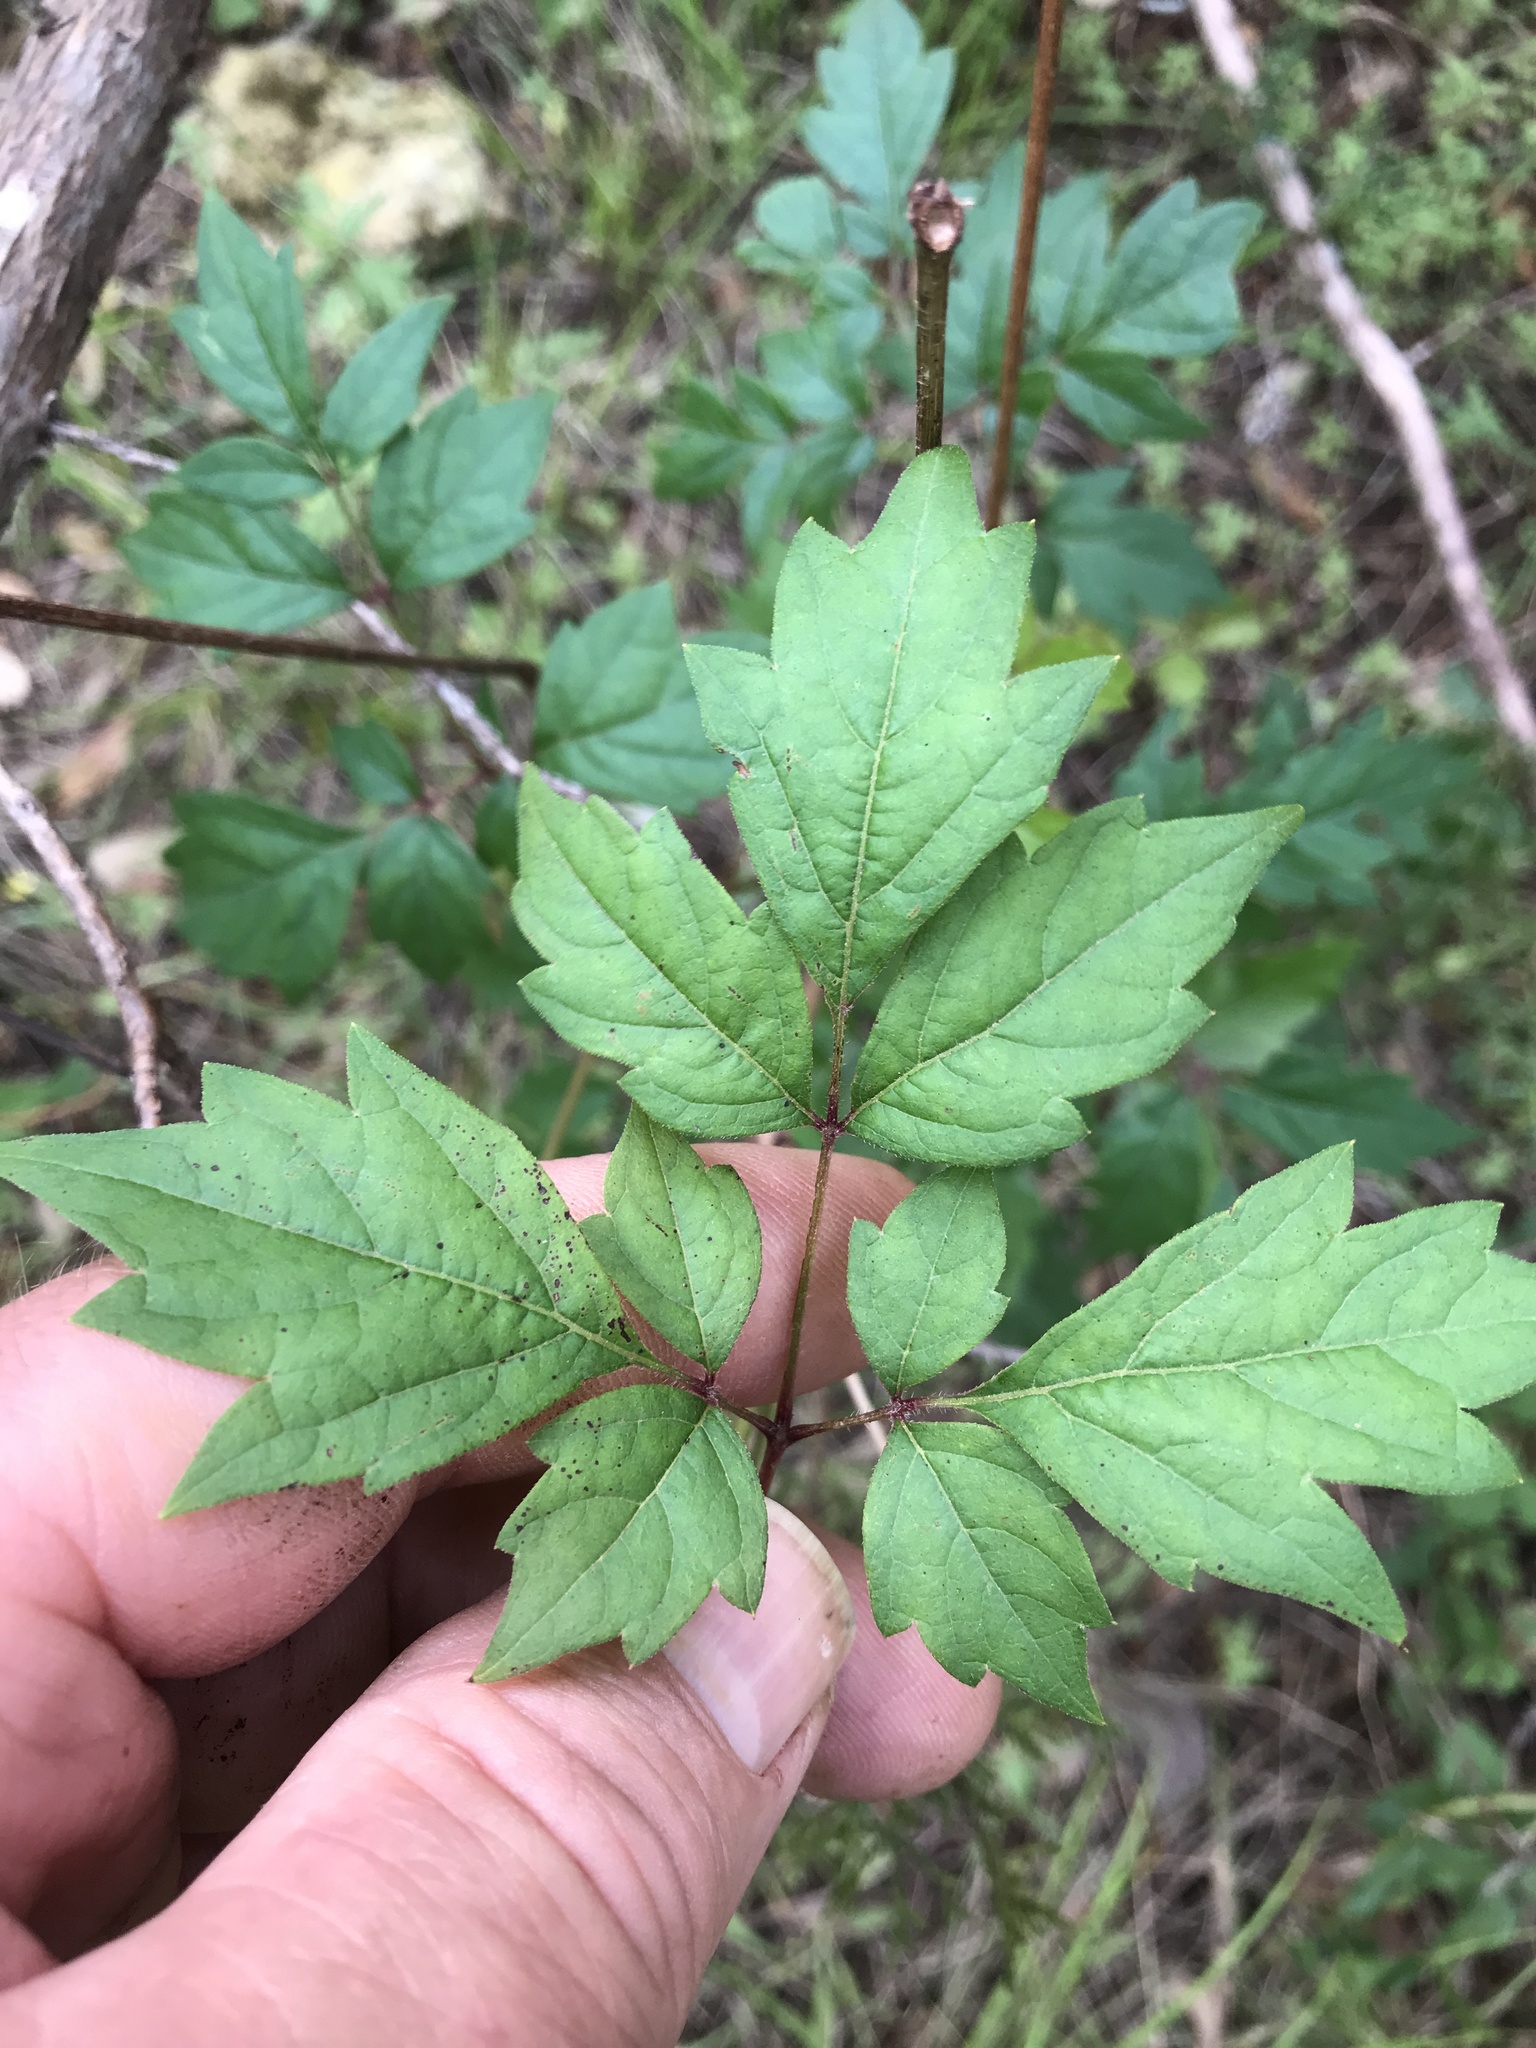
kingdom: Plantae
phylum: Tracheophyta
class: Magnoliopsida
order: Vitales
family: Vitaceae
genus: Nekemias
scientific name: Nekemias arborea
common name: Peppervine
